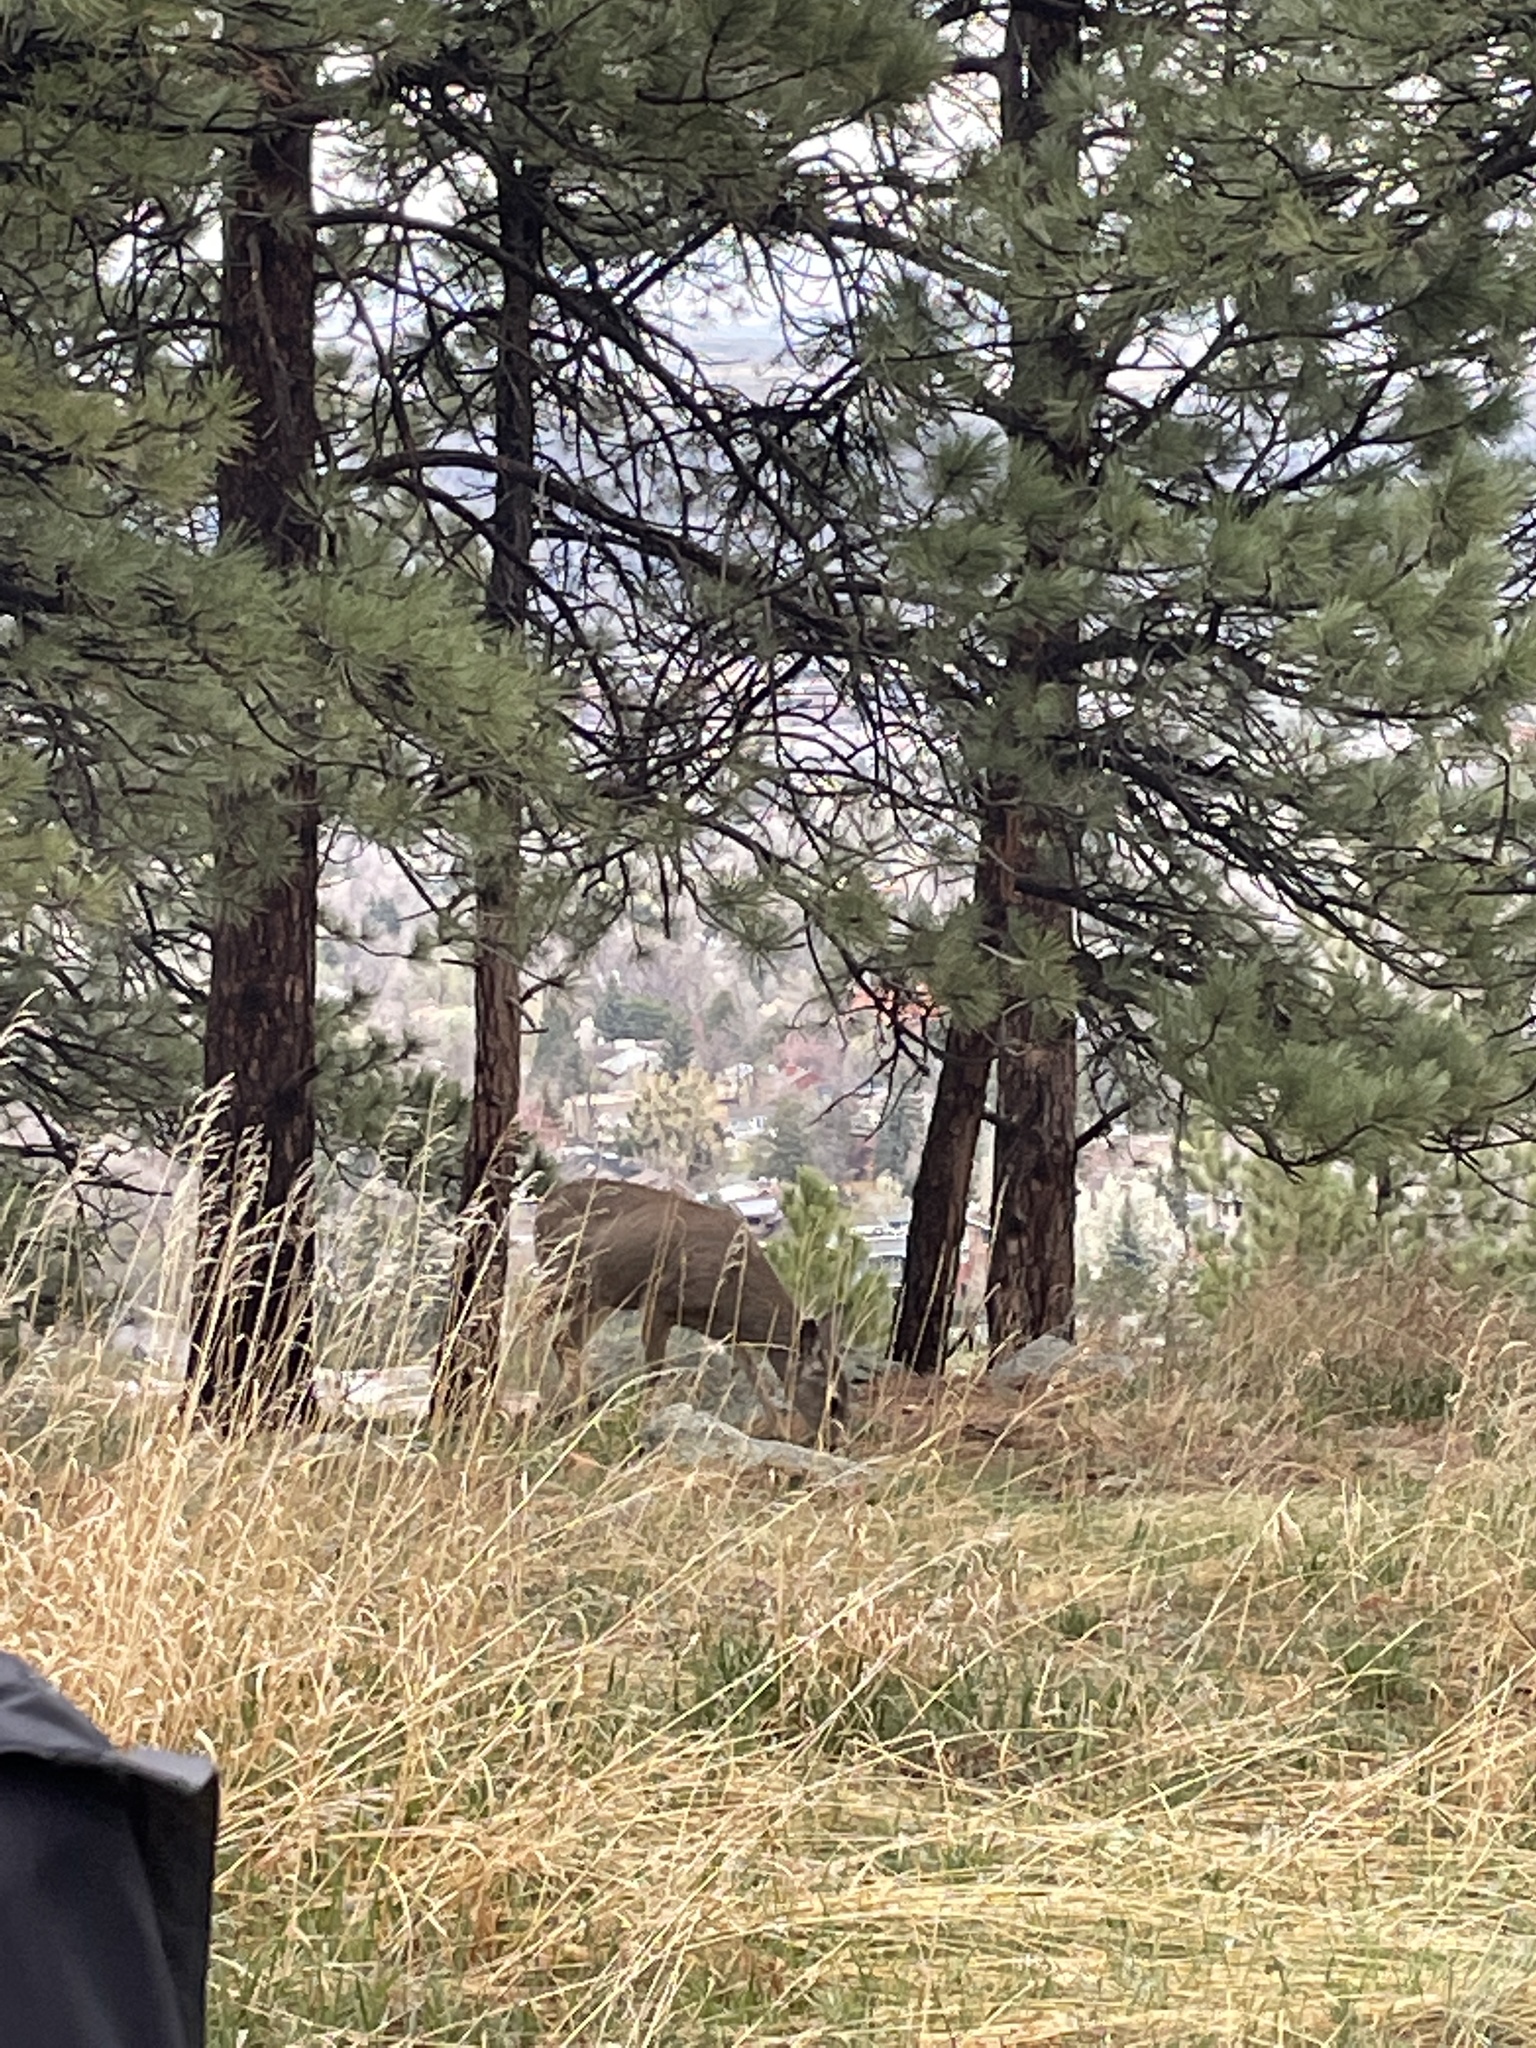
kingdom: Animalia
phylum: Chordata
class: Mammalia
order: Artiodactyla
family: Cervidae
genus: Odocoileus
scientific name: Odocoileus hemionus
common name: Mule deer
